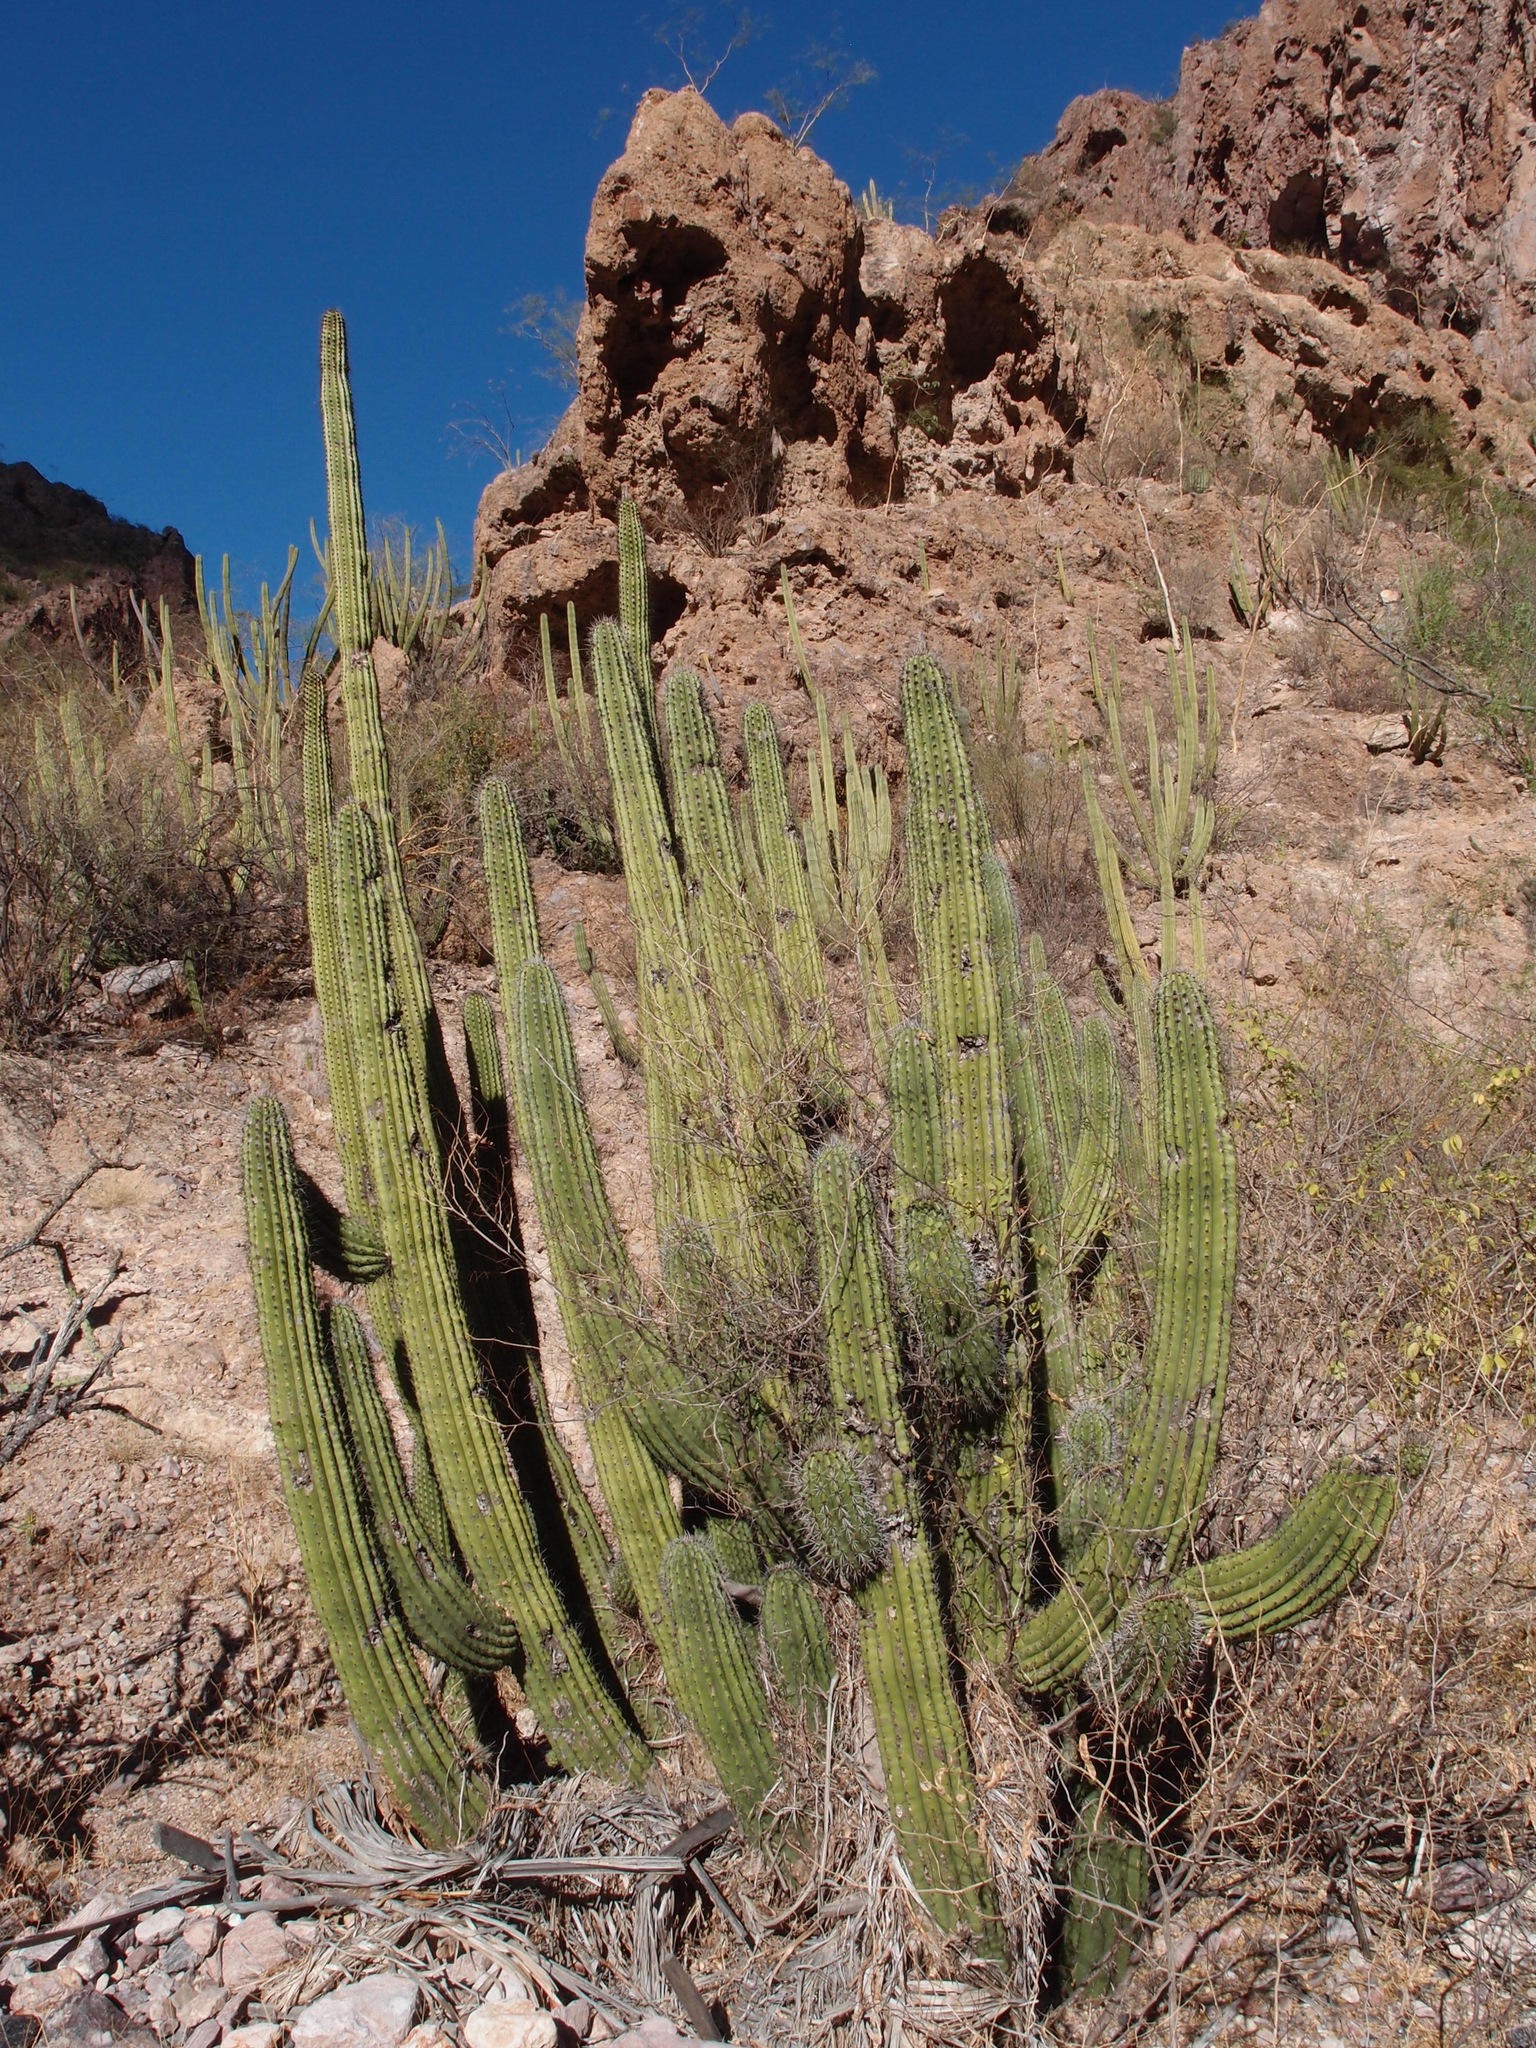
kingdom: Plantae
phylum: Tracheophyta
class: Magnoliopsida
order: Caryophyllales
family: Cactaceae
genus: Stenocereus
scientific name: Stenocereus thurberi
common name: Organ pipe cactus
